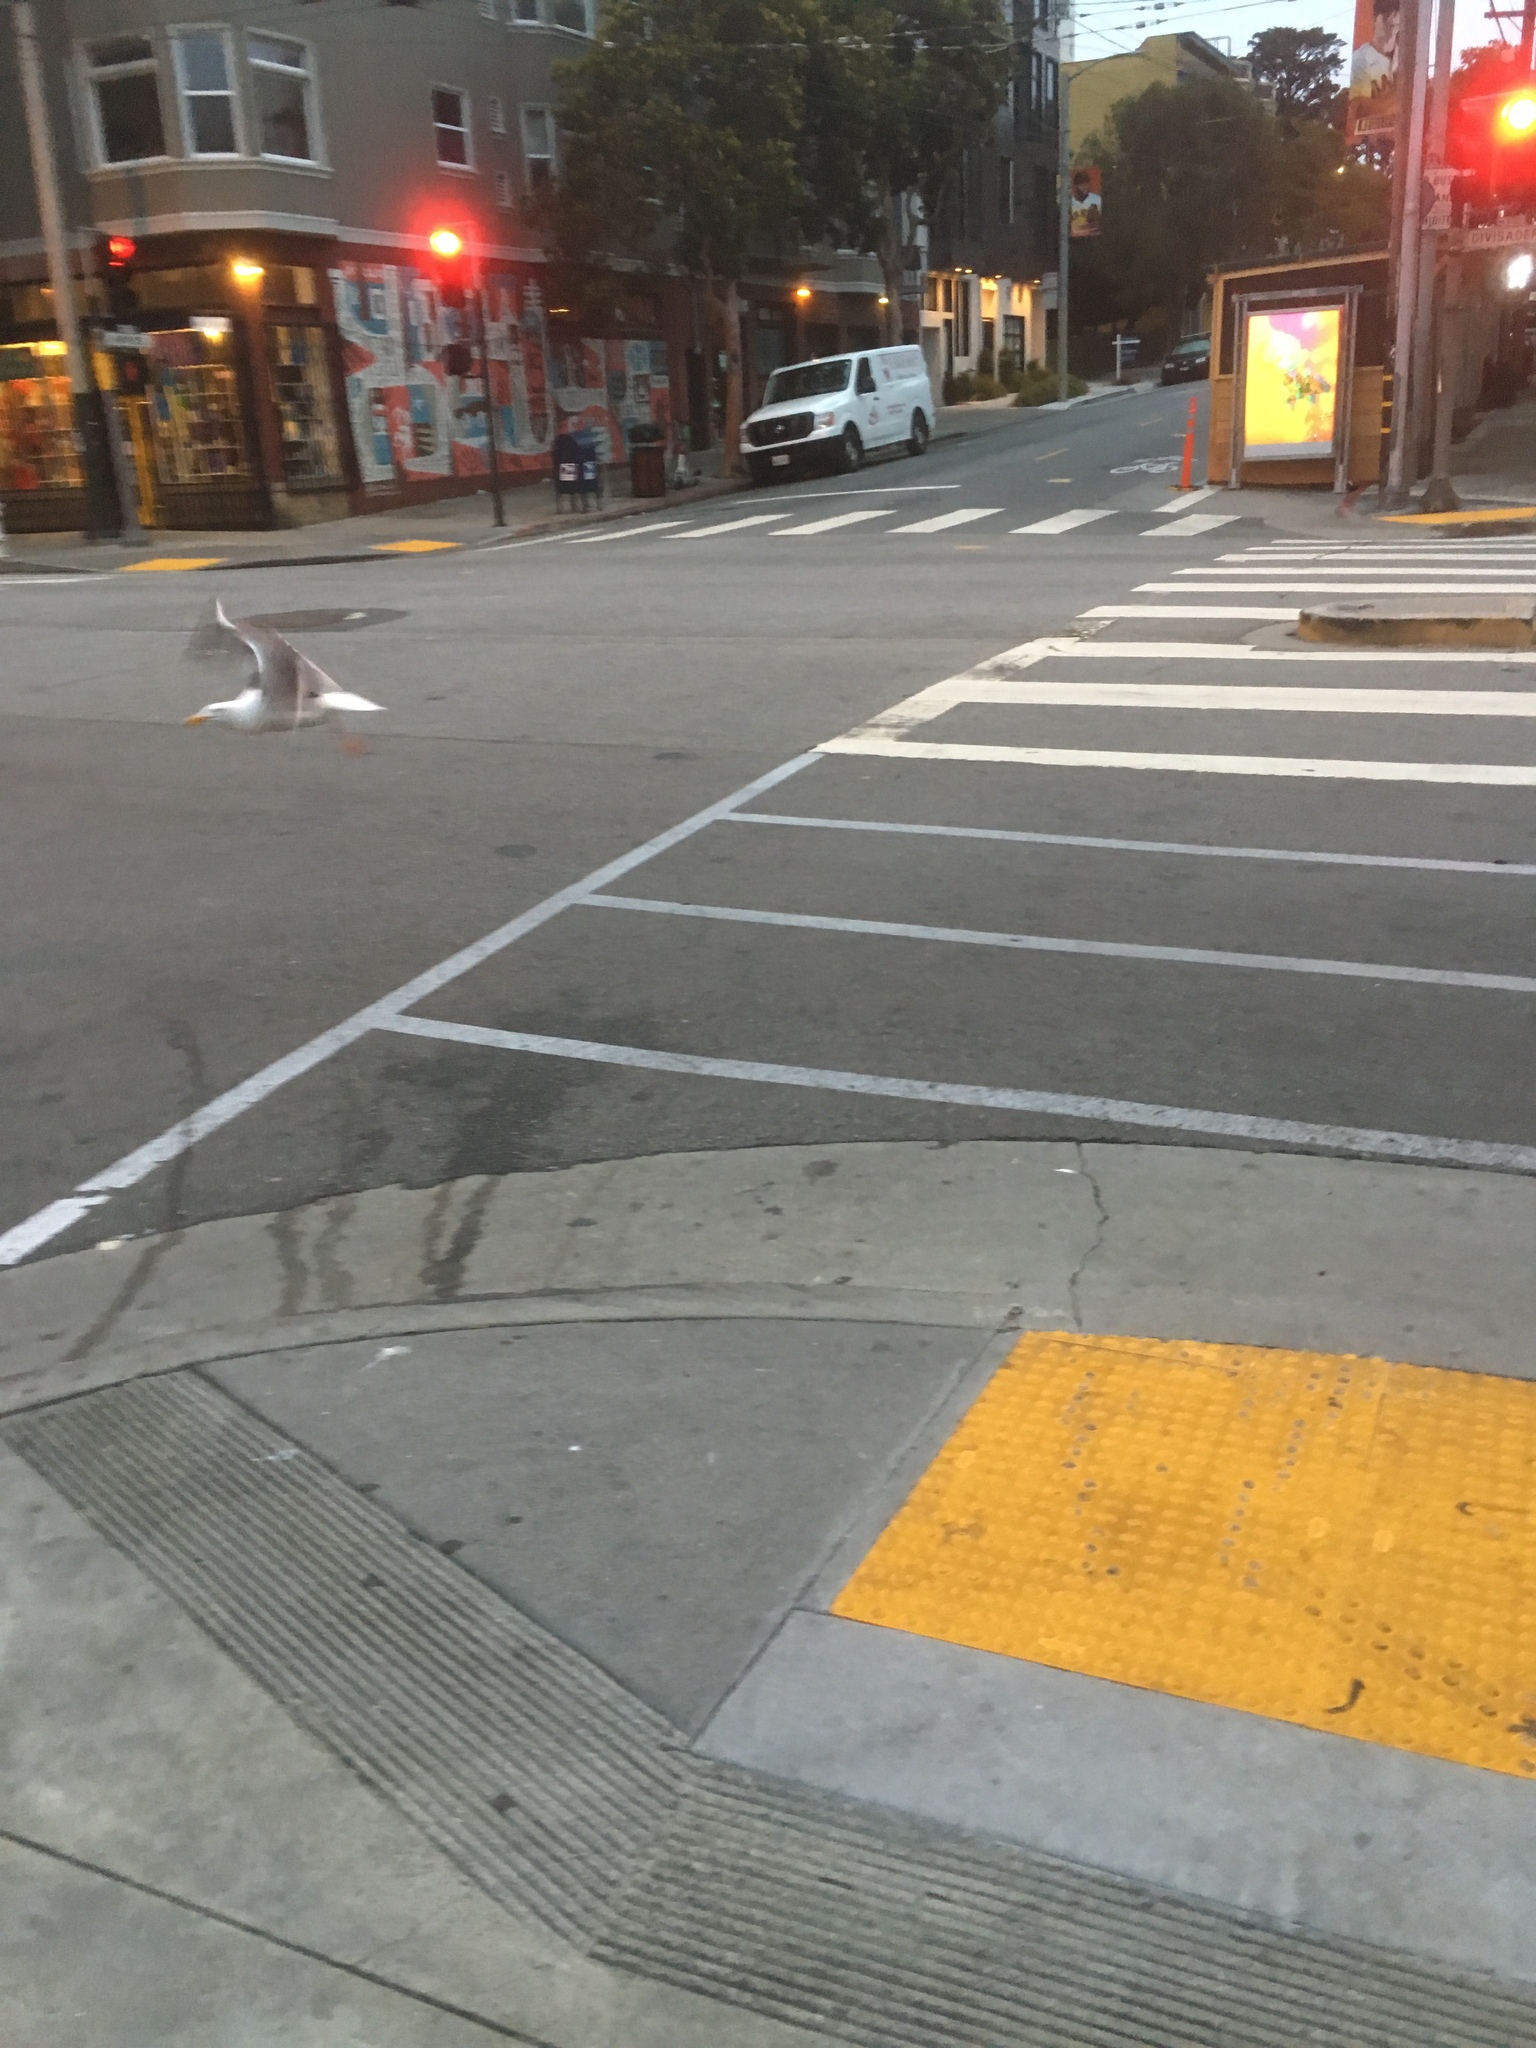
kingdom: Animalia
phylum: Chordata
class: Aves
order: Charadriiformes
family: Laridae
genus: Larus
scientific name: Larus occidentalis
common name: Western gull
